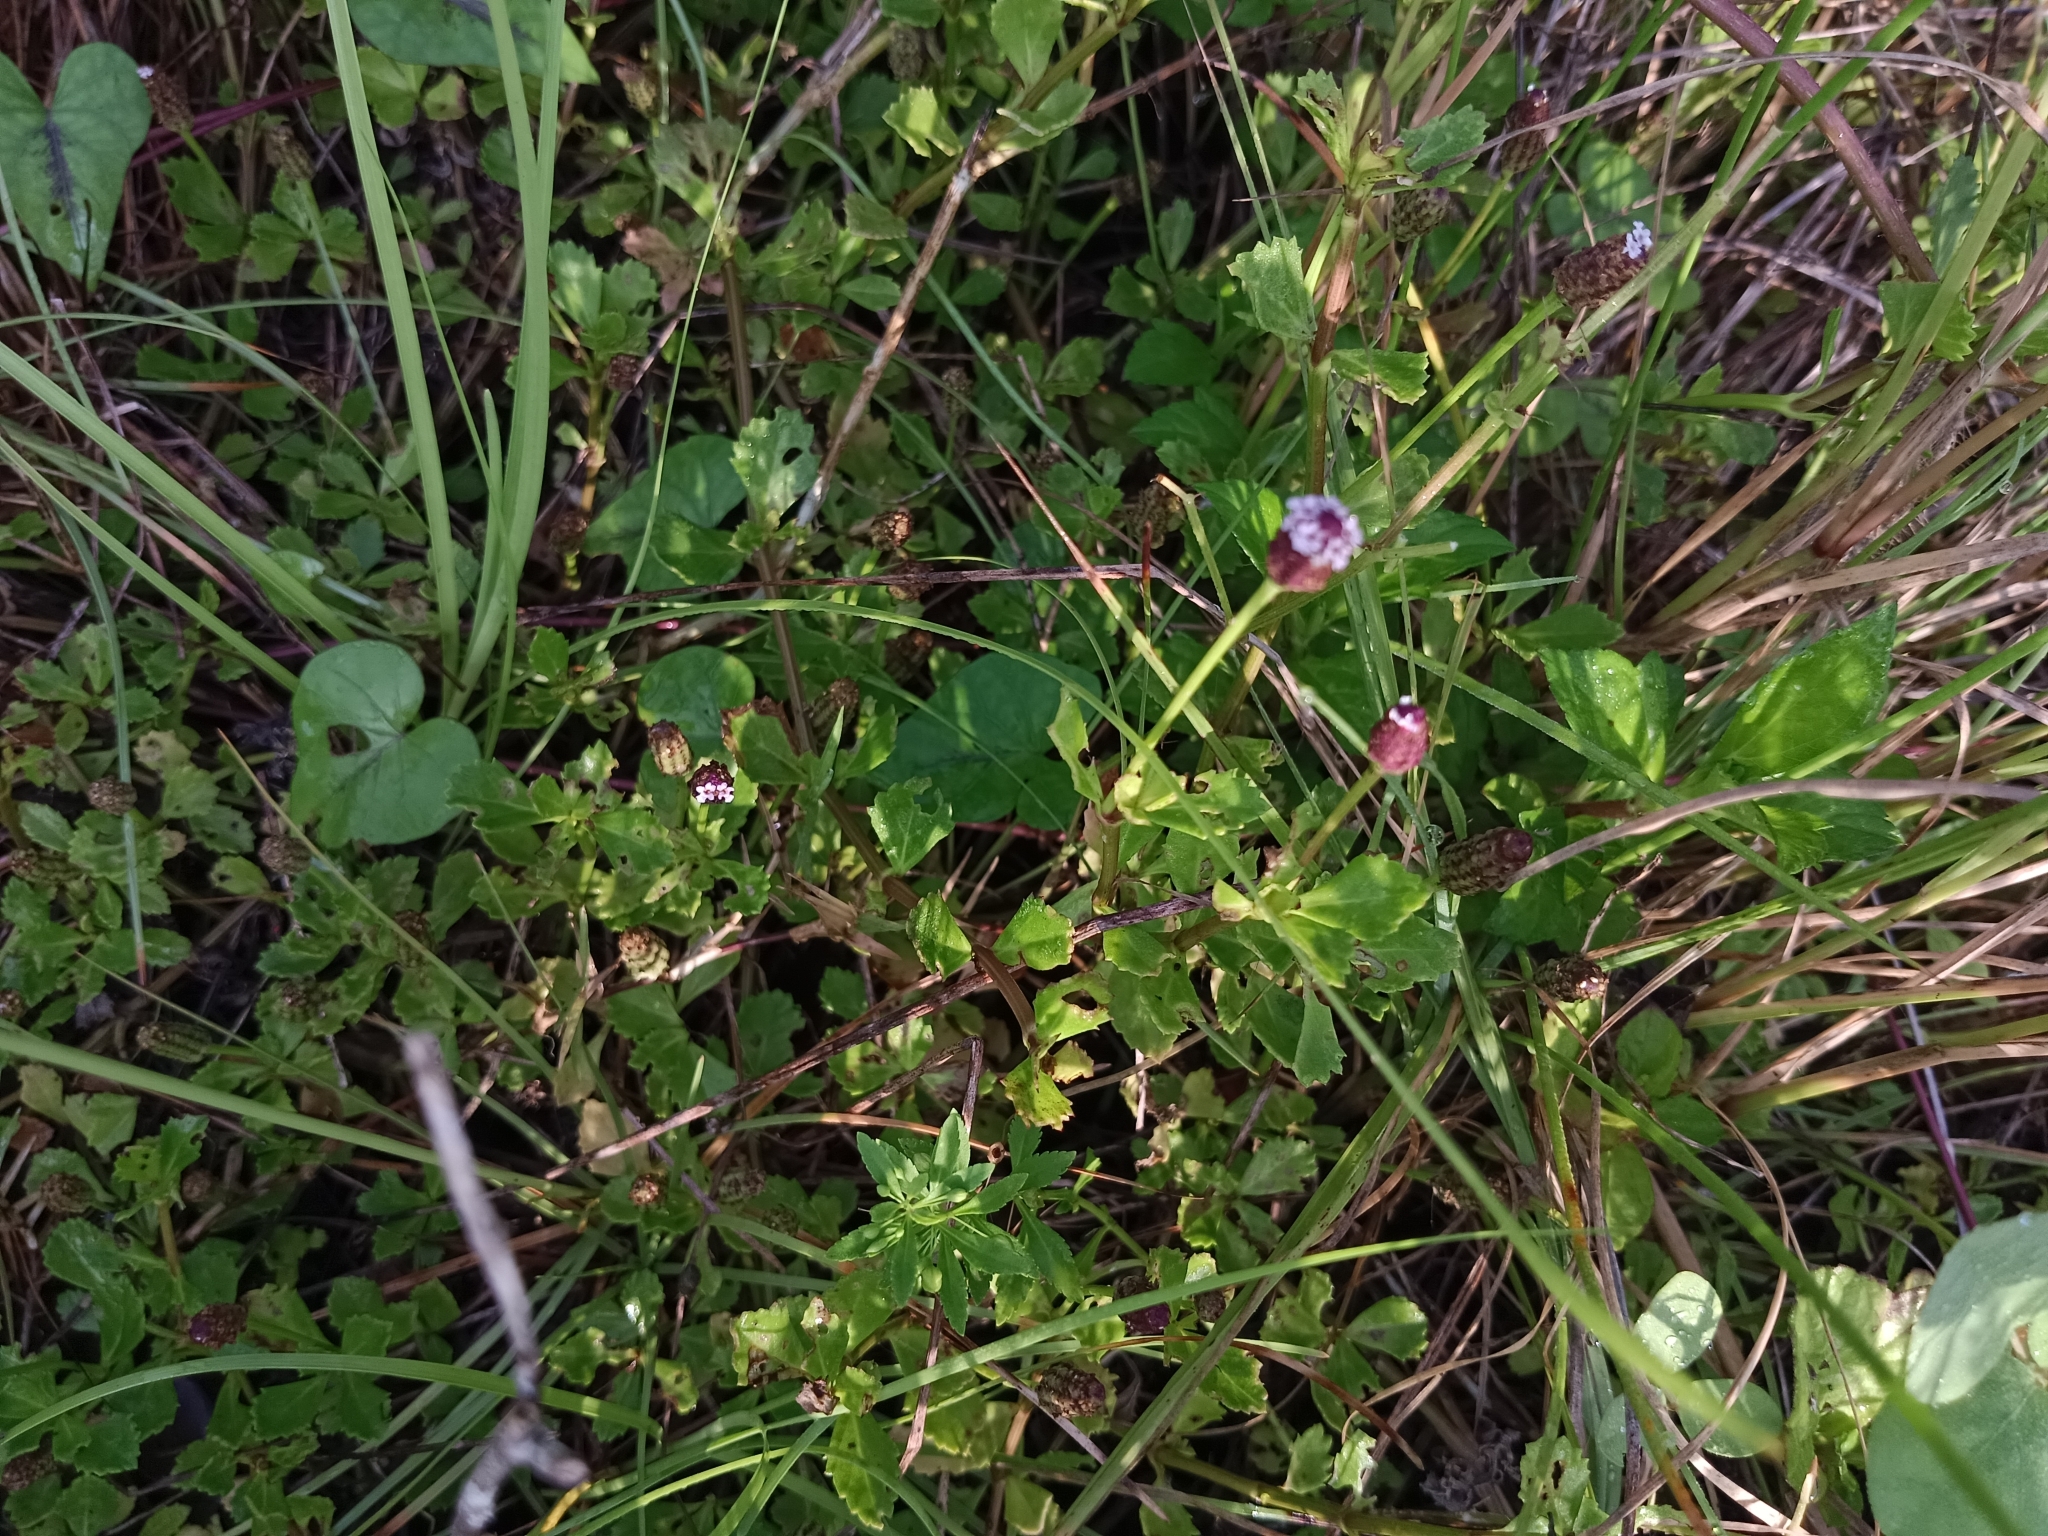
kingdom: Plantae
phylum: Tracheophyta
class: Magnoliopsida
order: Lamiales
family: Verbenaceae
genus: Phyla
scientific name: Phyla nodiflora
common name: Frogfruit
